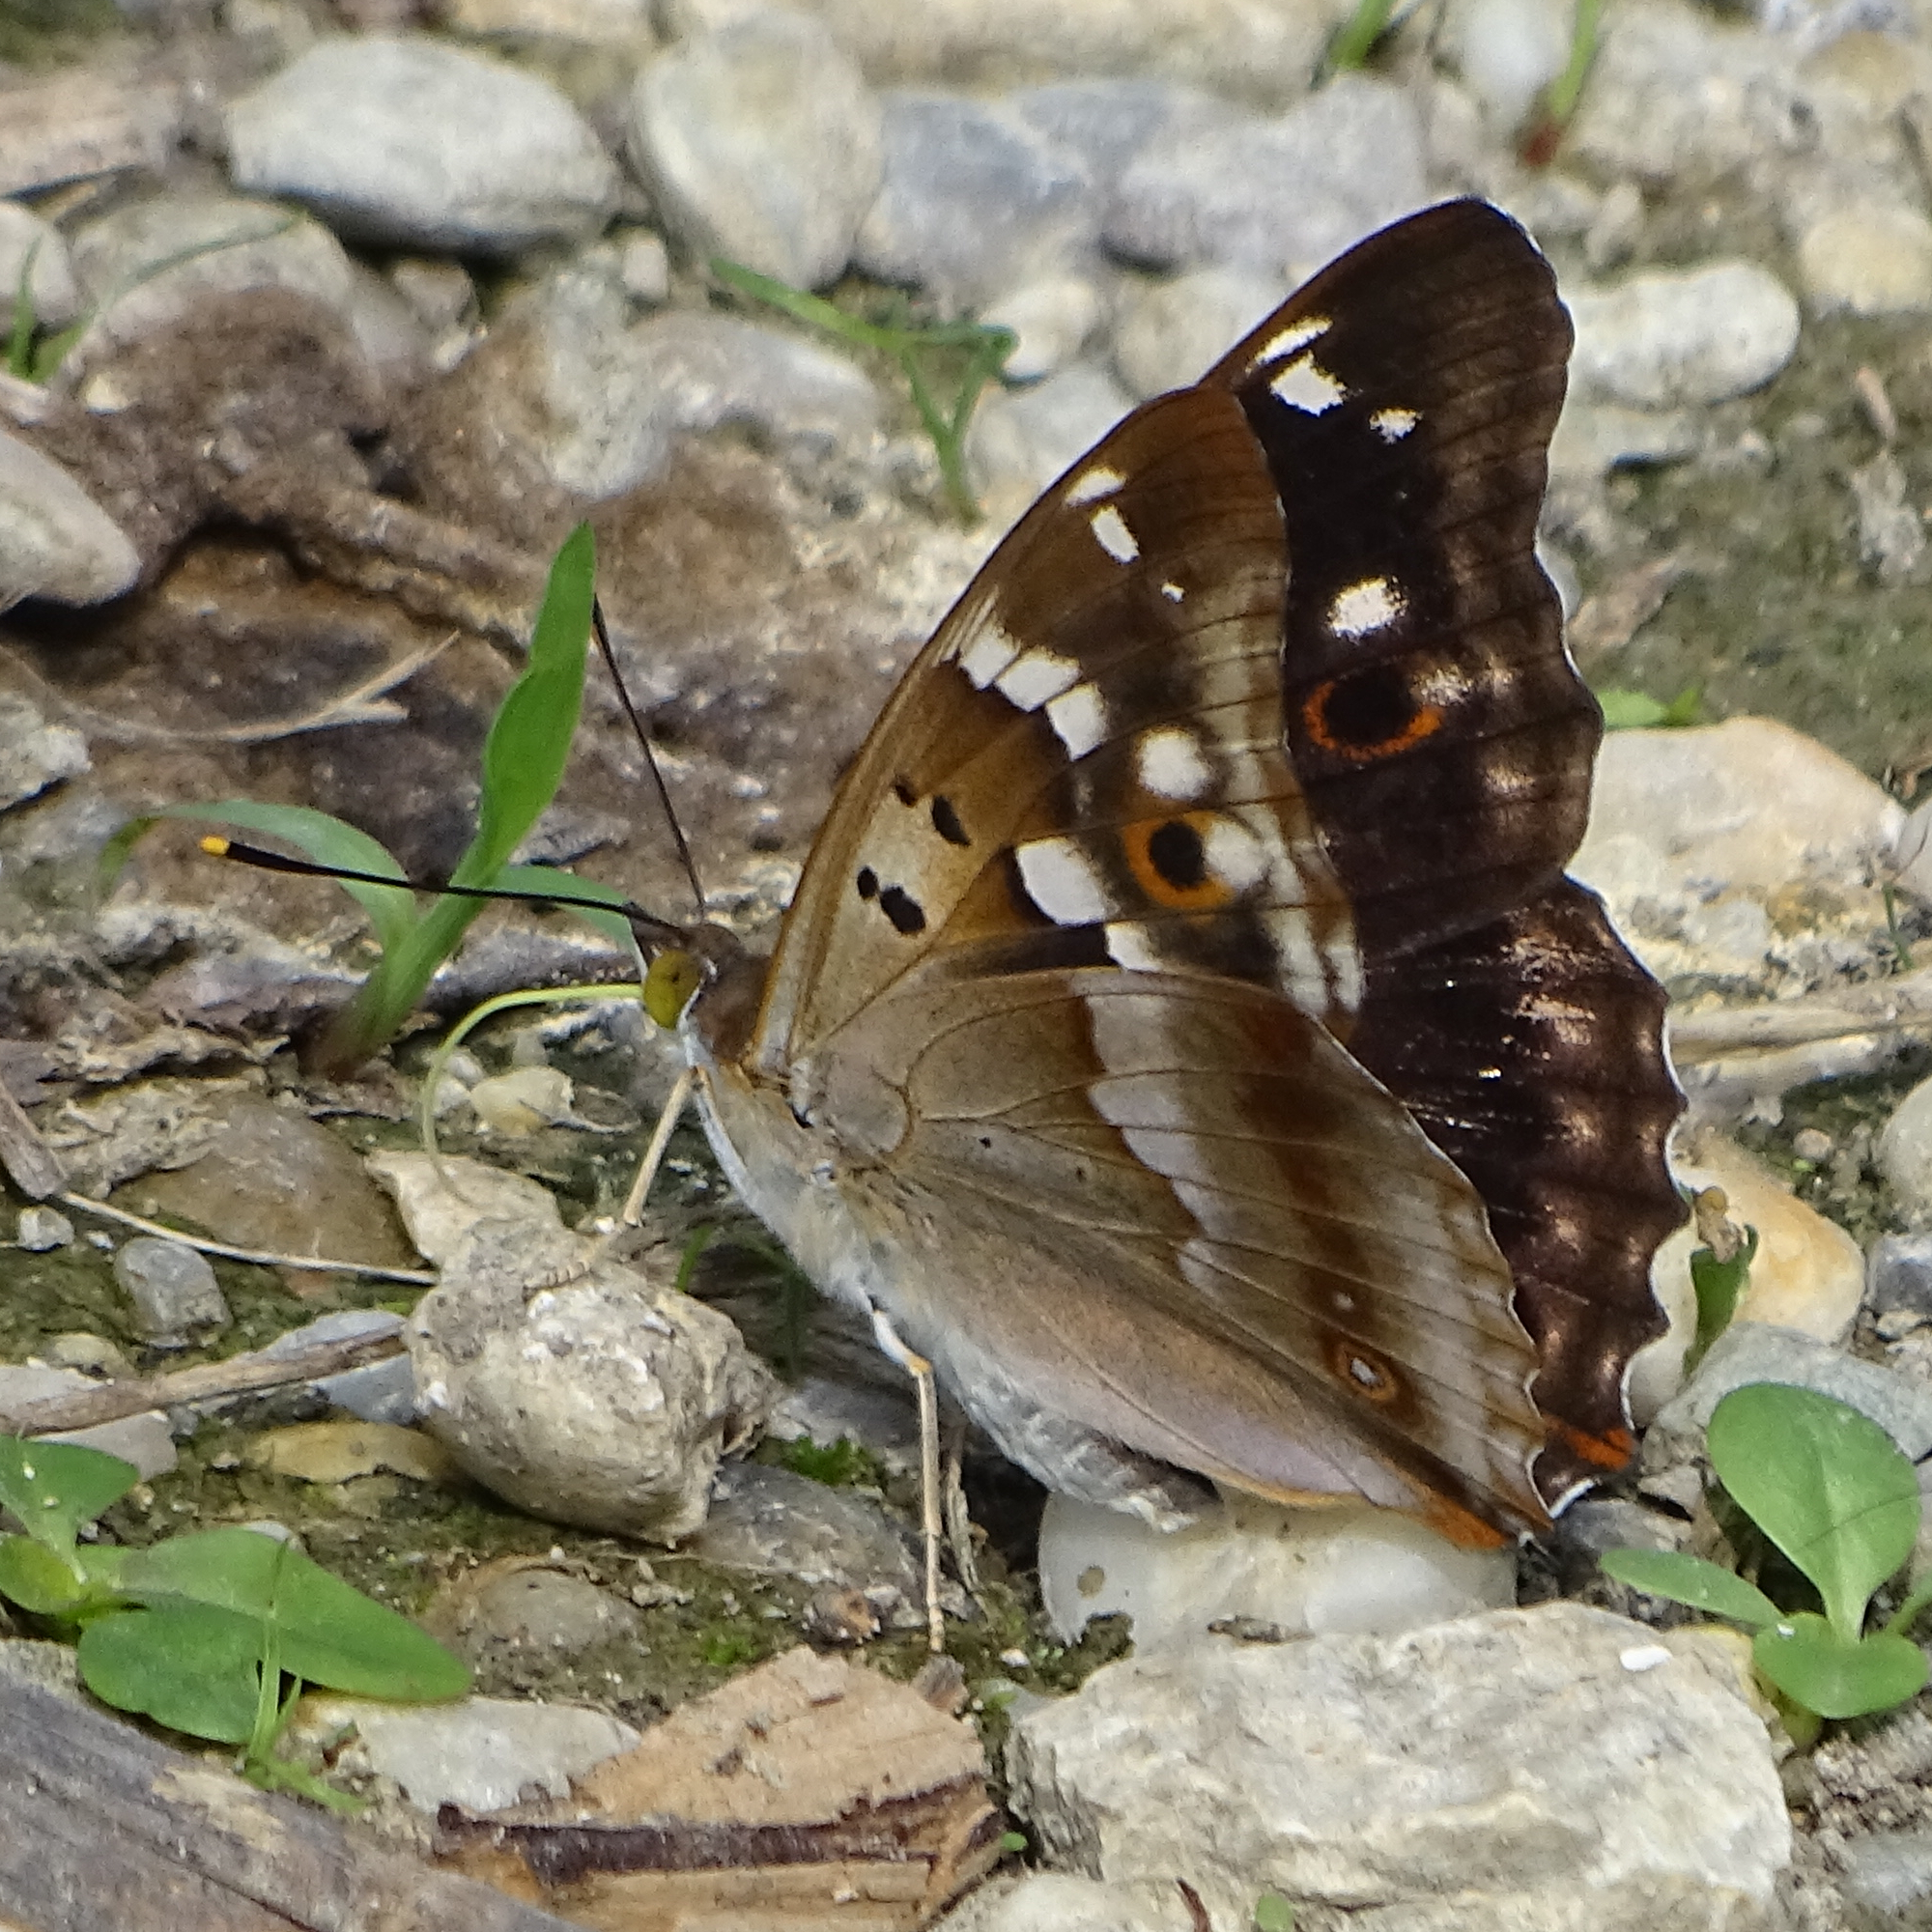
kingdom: Animalia
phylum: Arthropoda
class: Insecta
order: Lepidoptera
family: Nymphalidae
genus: Apatura
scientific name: Apatura ilia
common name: Lesser purple emperor
